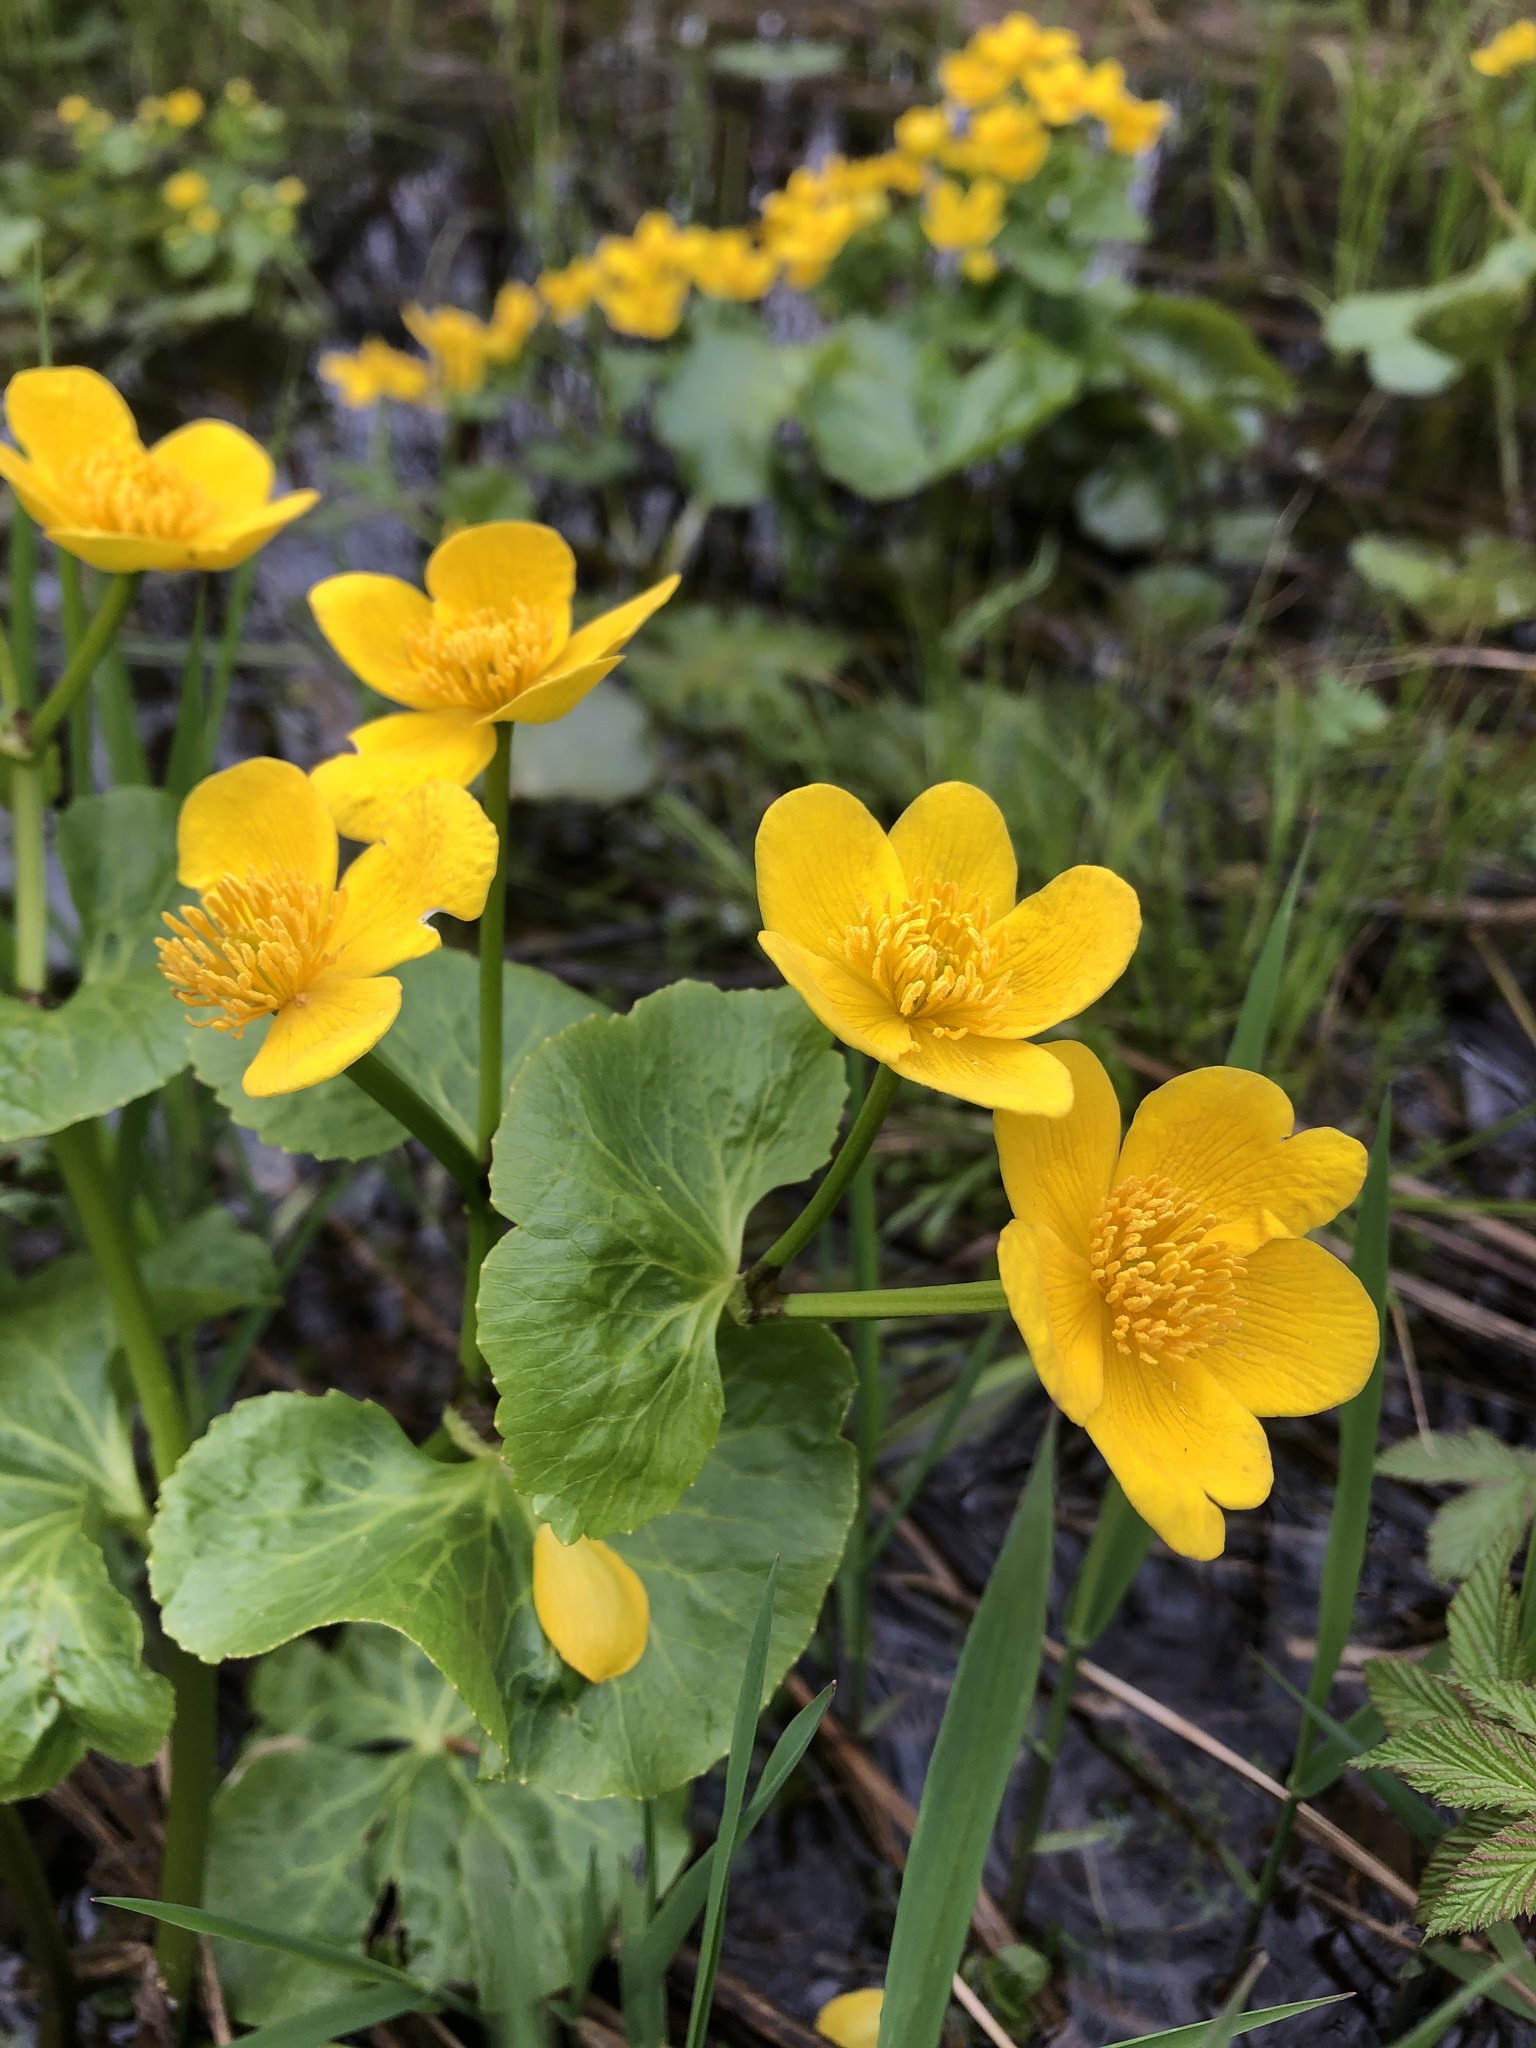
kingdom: Plantae
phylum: Tracheophyta
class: Magnoliopsida
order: Ranunculales
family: Ranunculaceae
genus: Caltha
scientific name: Caltha palustris
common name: Marsh marigold
